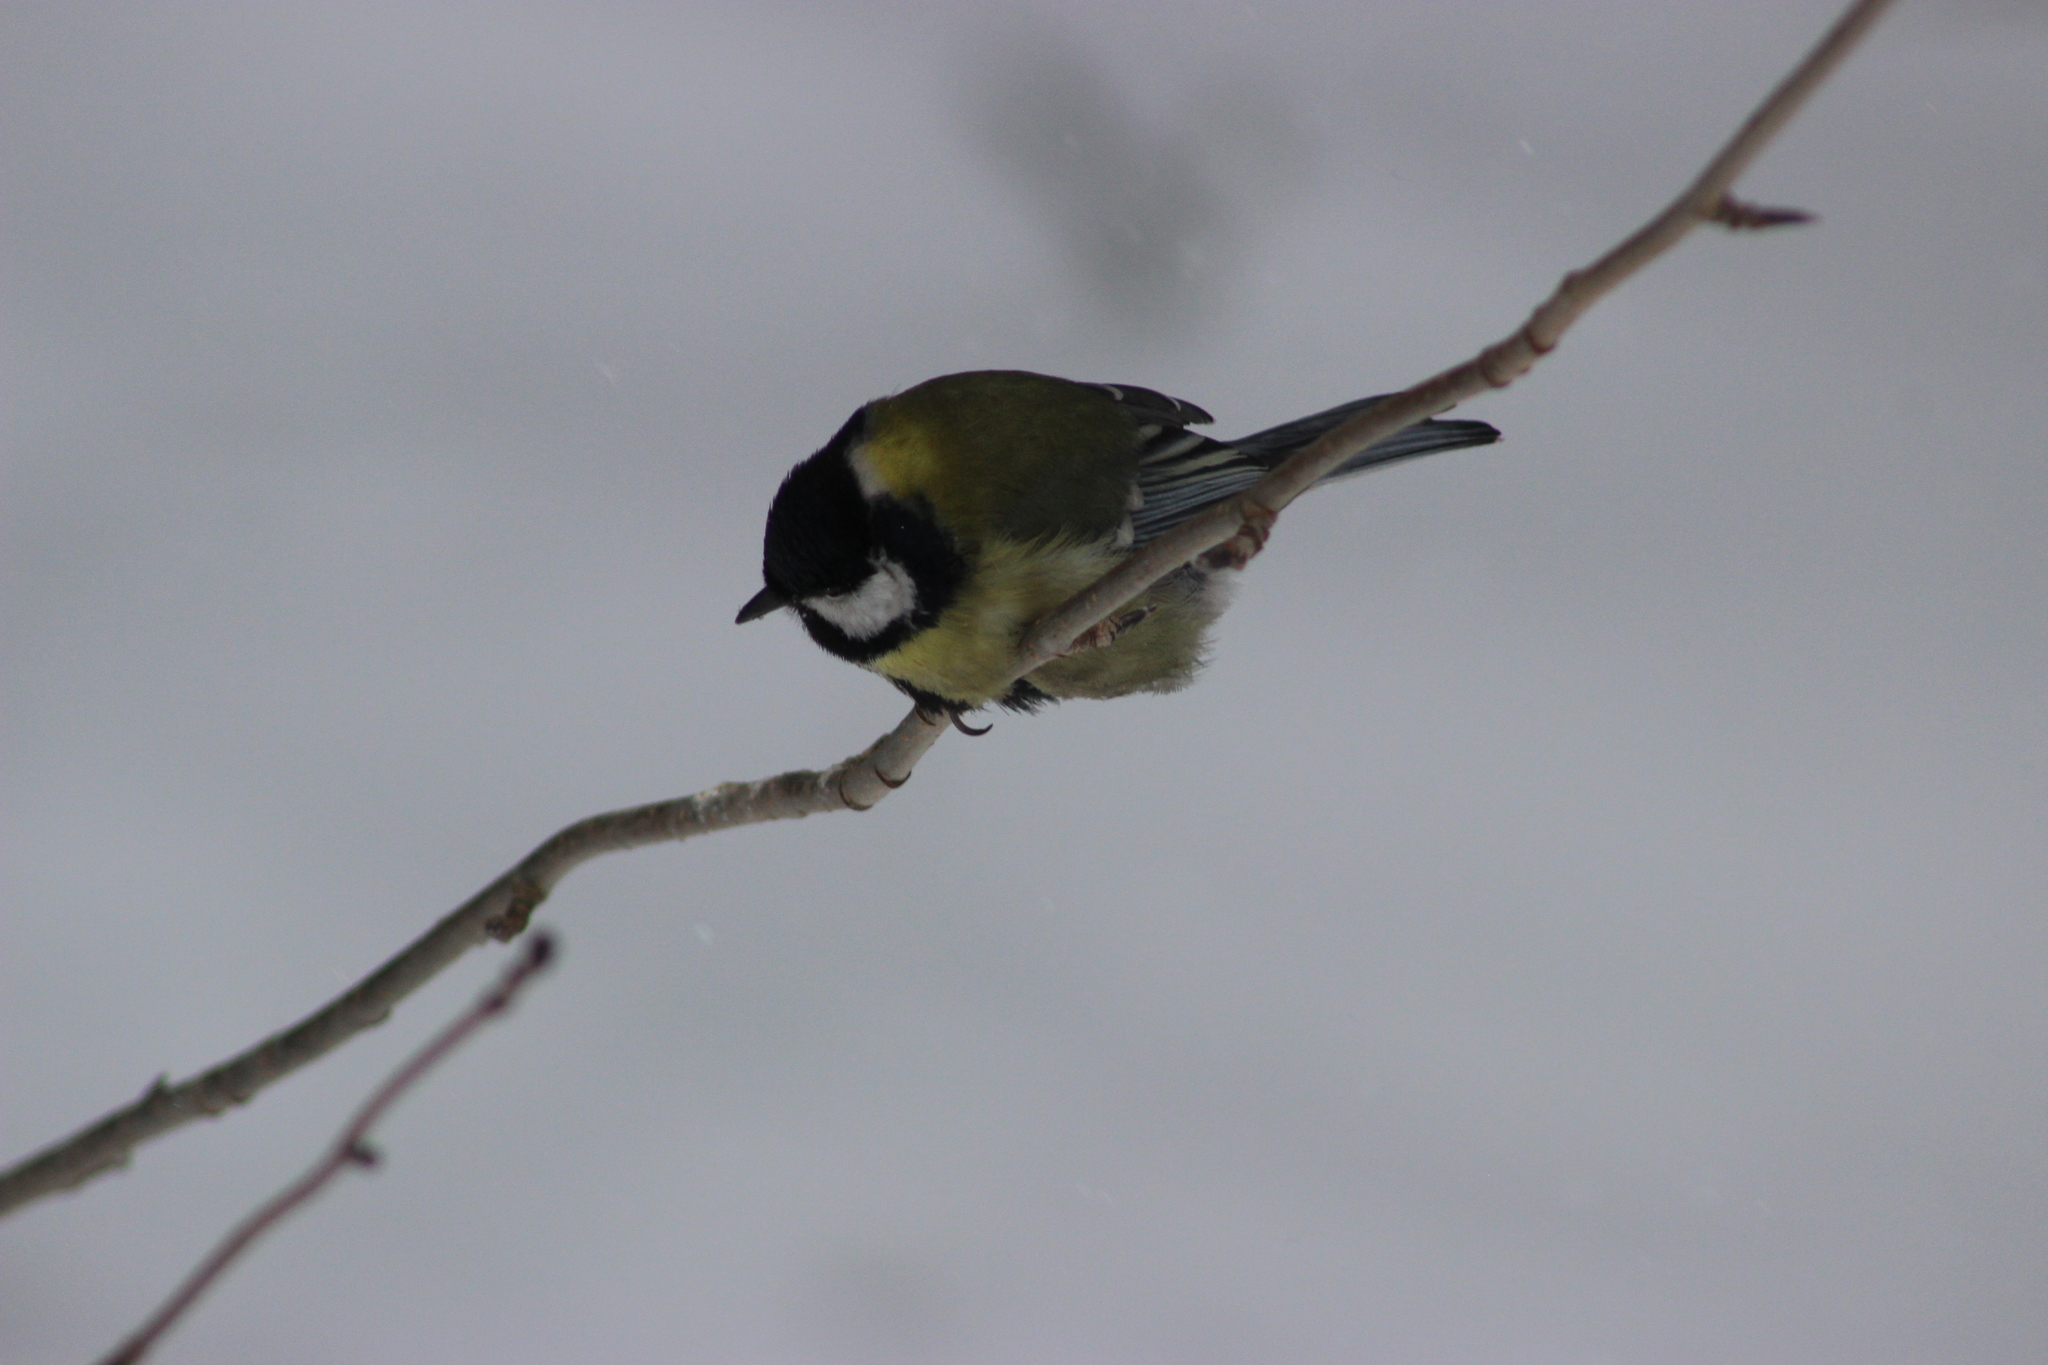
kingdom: Animalia
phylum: Chordata
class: Aves
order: Passeriformes
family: Paridae
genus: Parus
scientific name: Parus major
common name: Great tit
